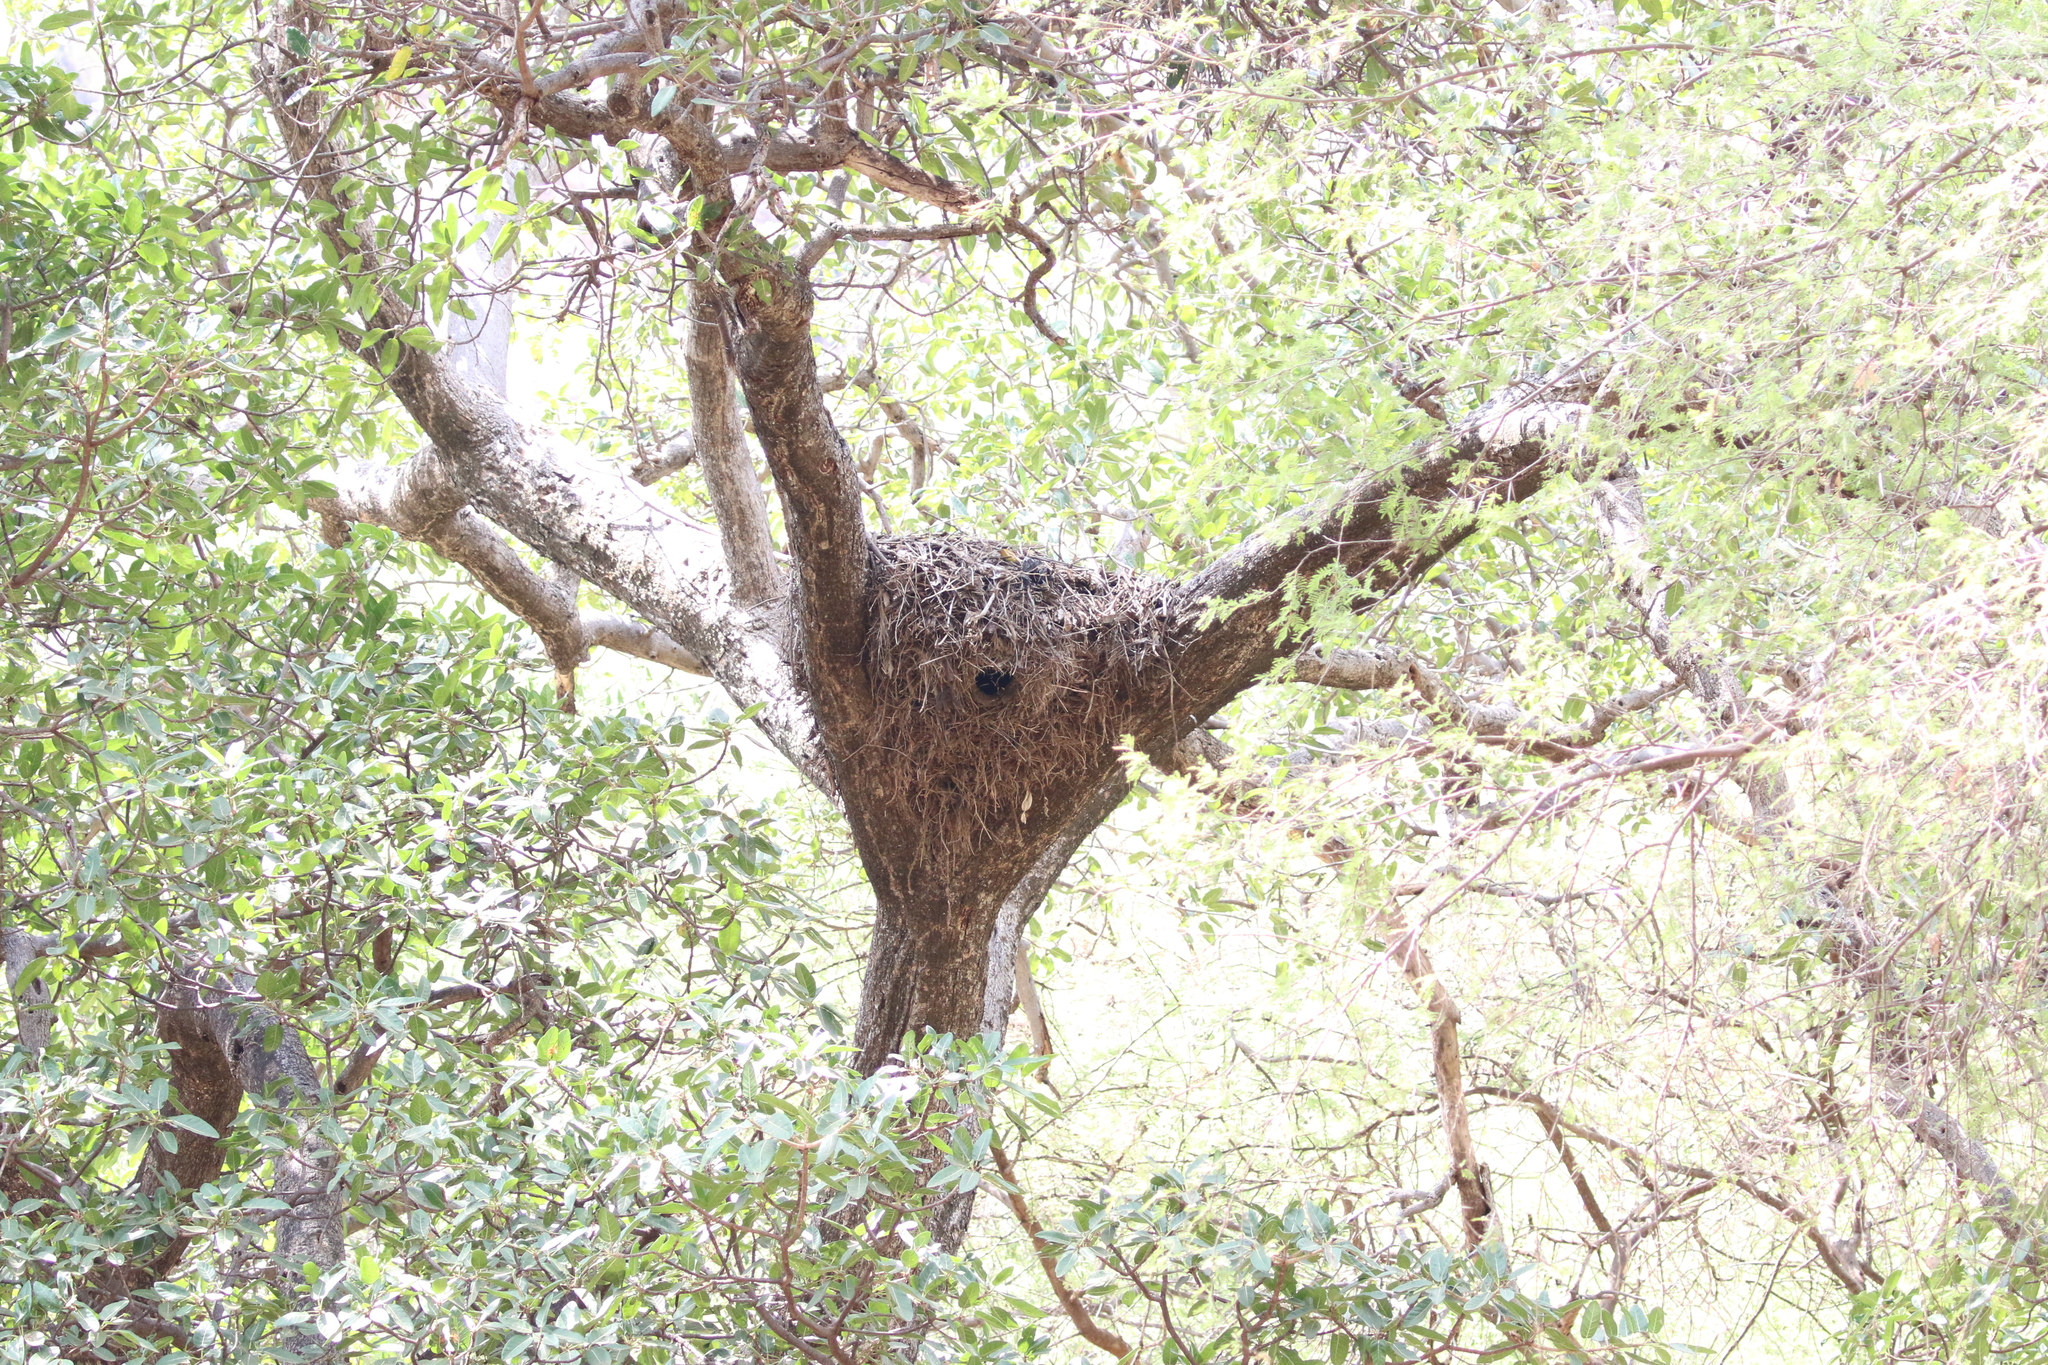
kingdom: Animalia
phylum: Chordata
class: Aves
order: Pelecaniformes
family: Scopidae
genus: Scopus
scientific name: Scopus umbretta
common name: Hamerkop
